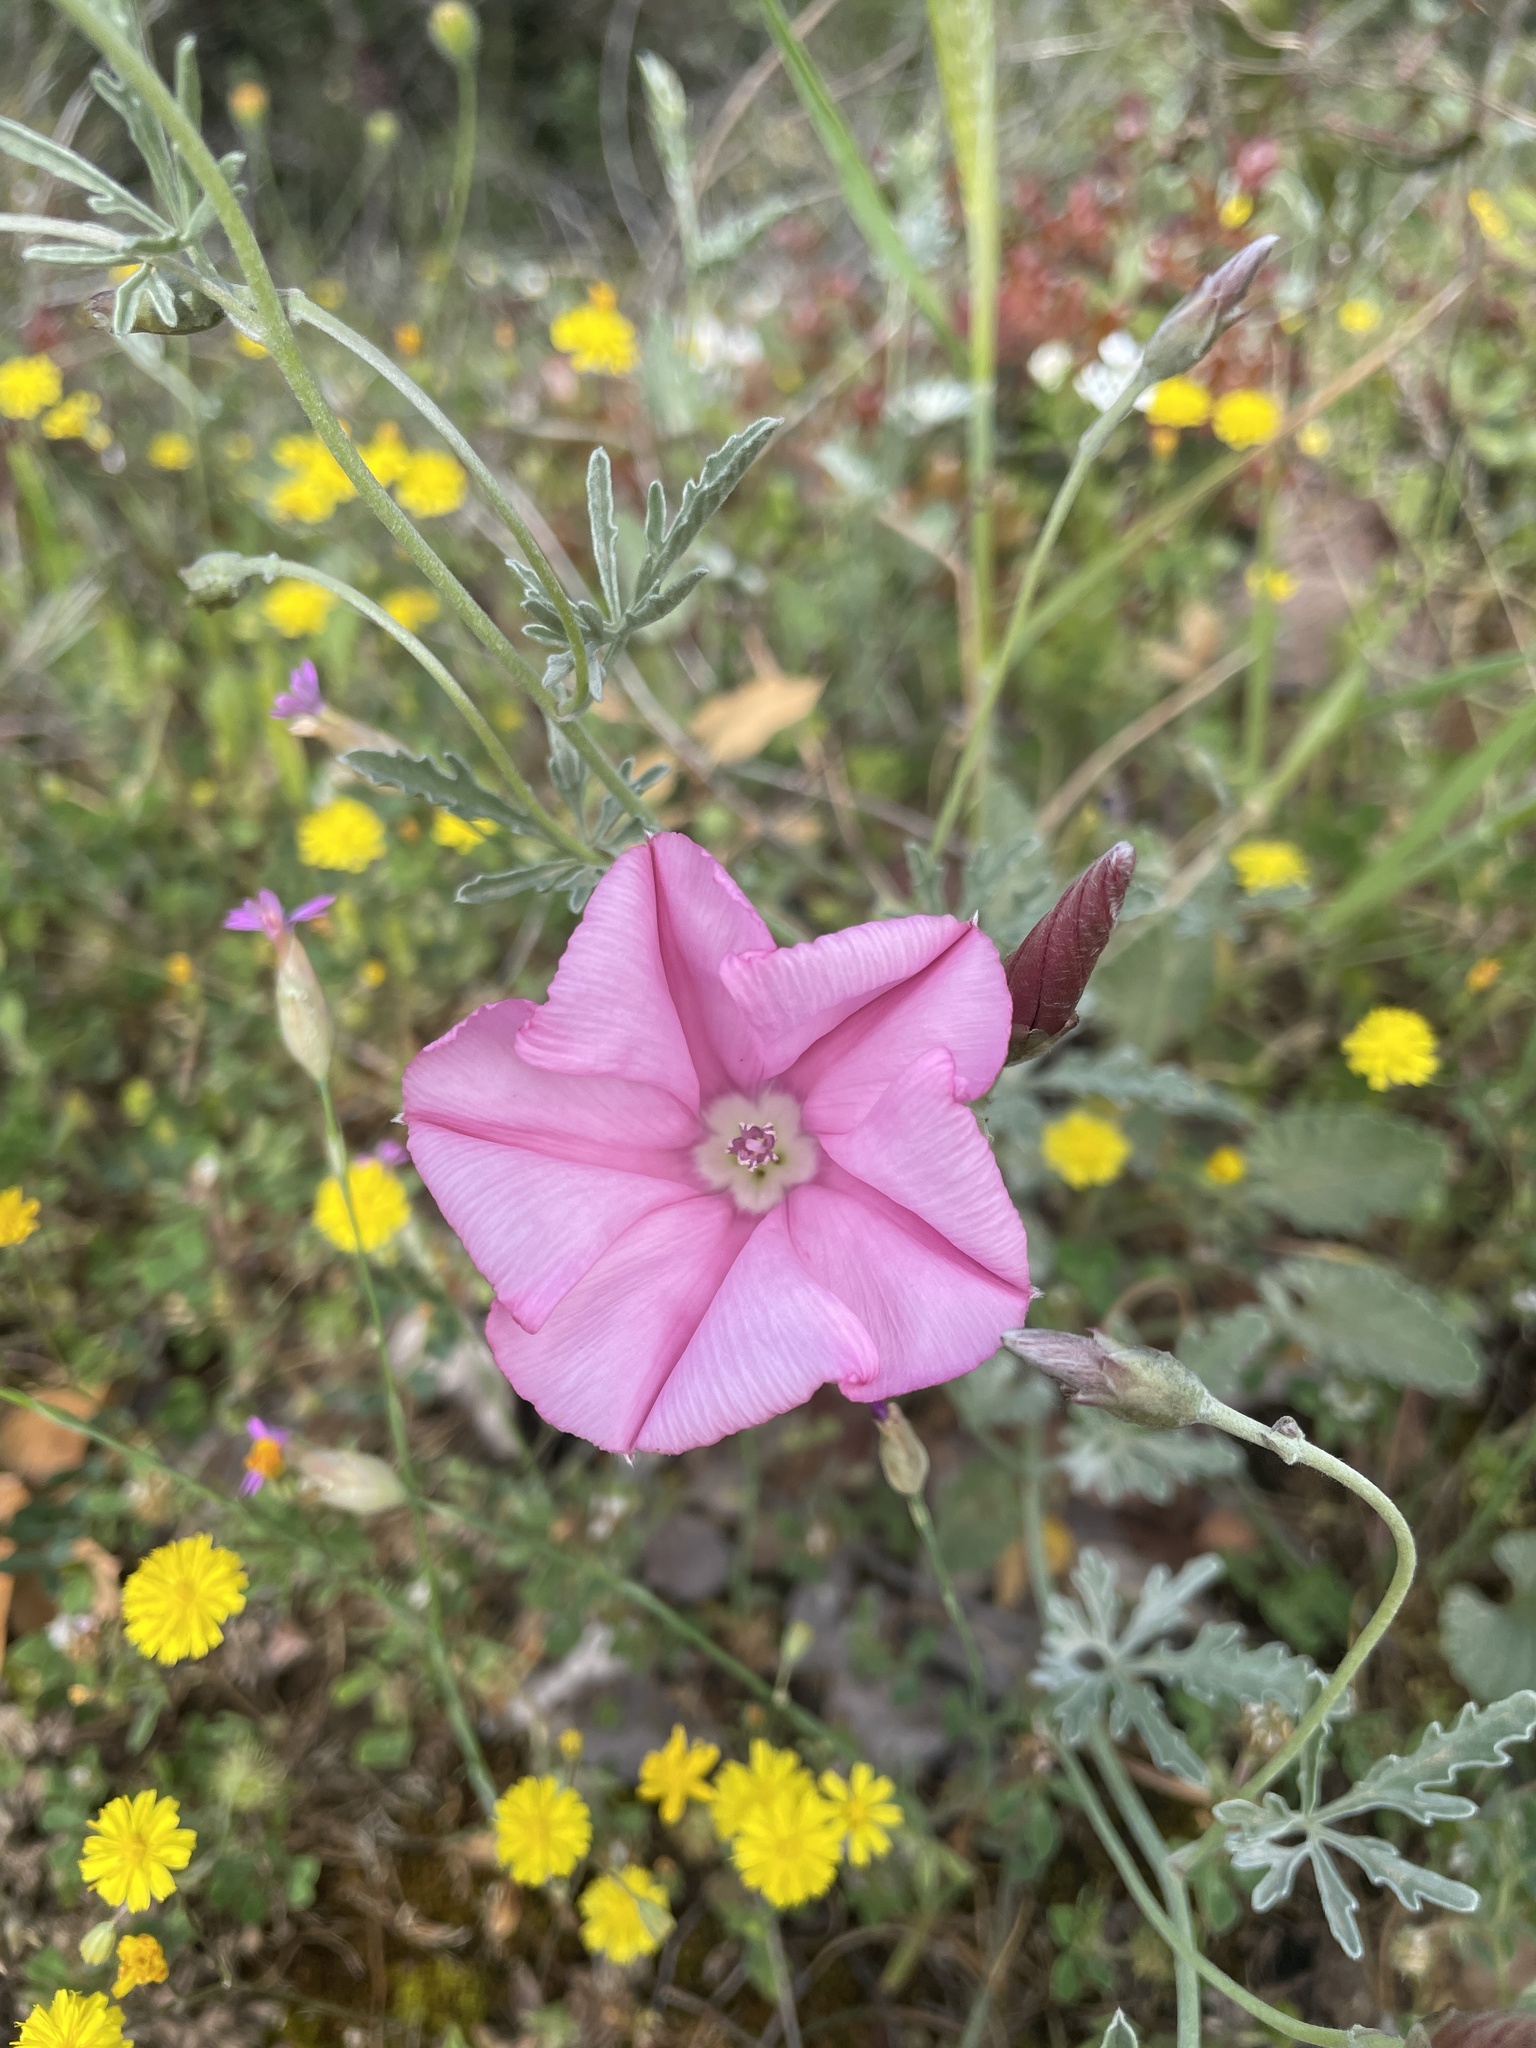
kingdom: Plantae
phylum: Tracheophyta
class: Magnoliopsida
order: Solanales
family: Convolvulaceae
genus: Convolvulus
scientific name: Convolvulus elegantissimus
